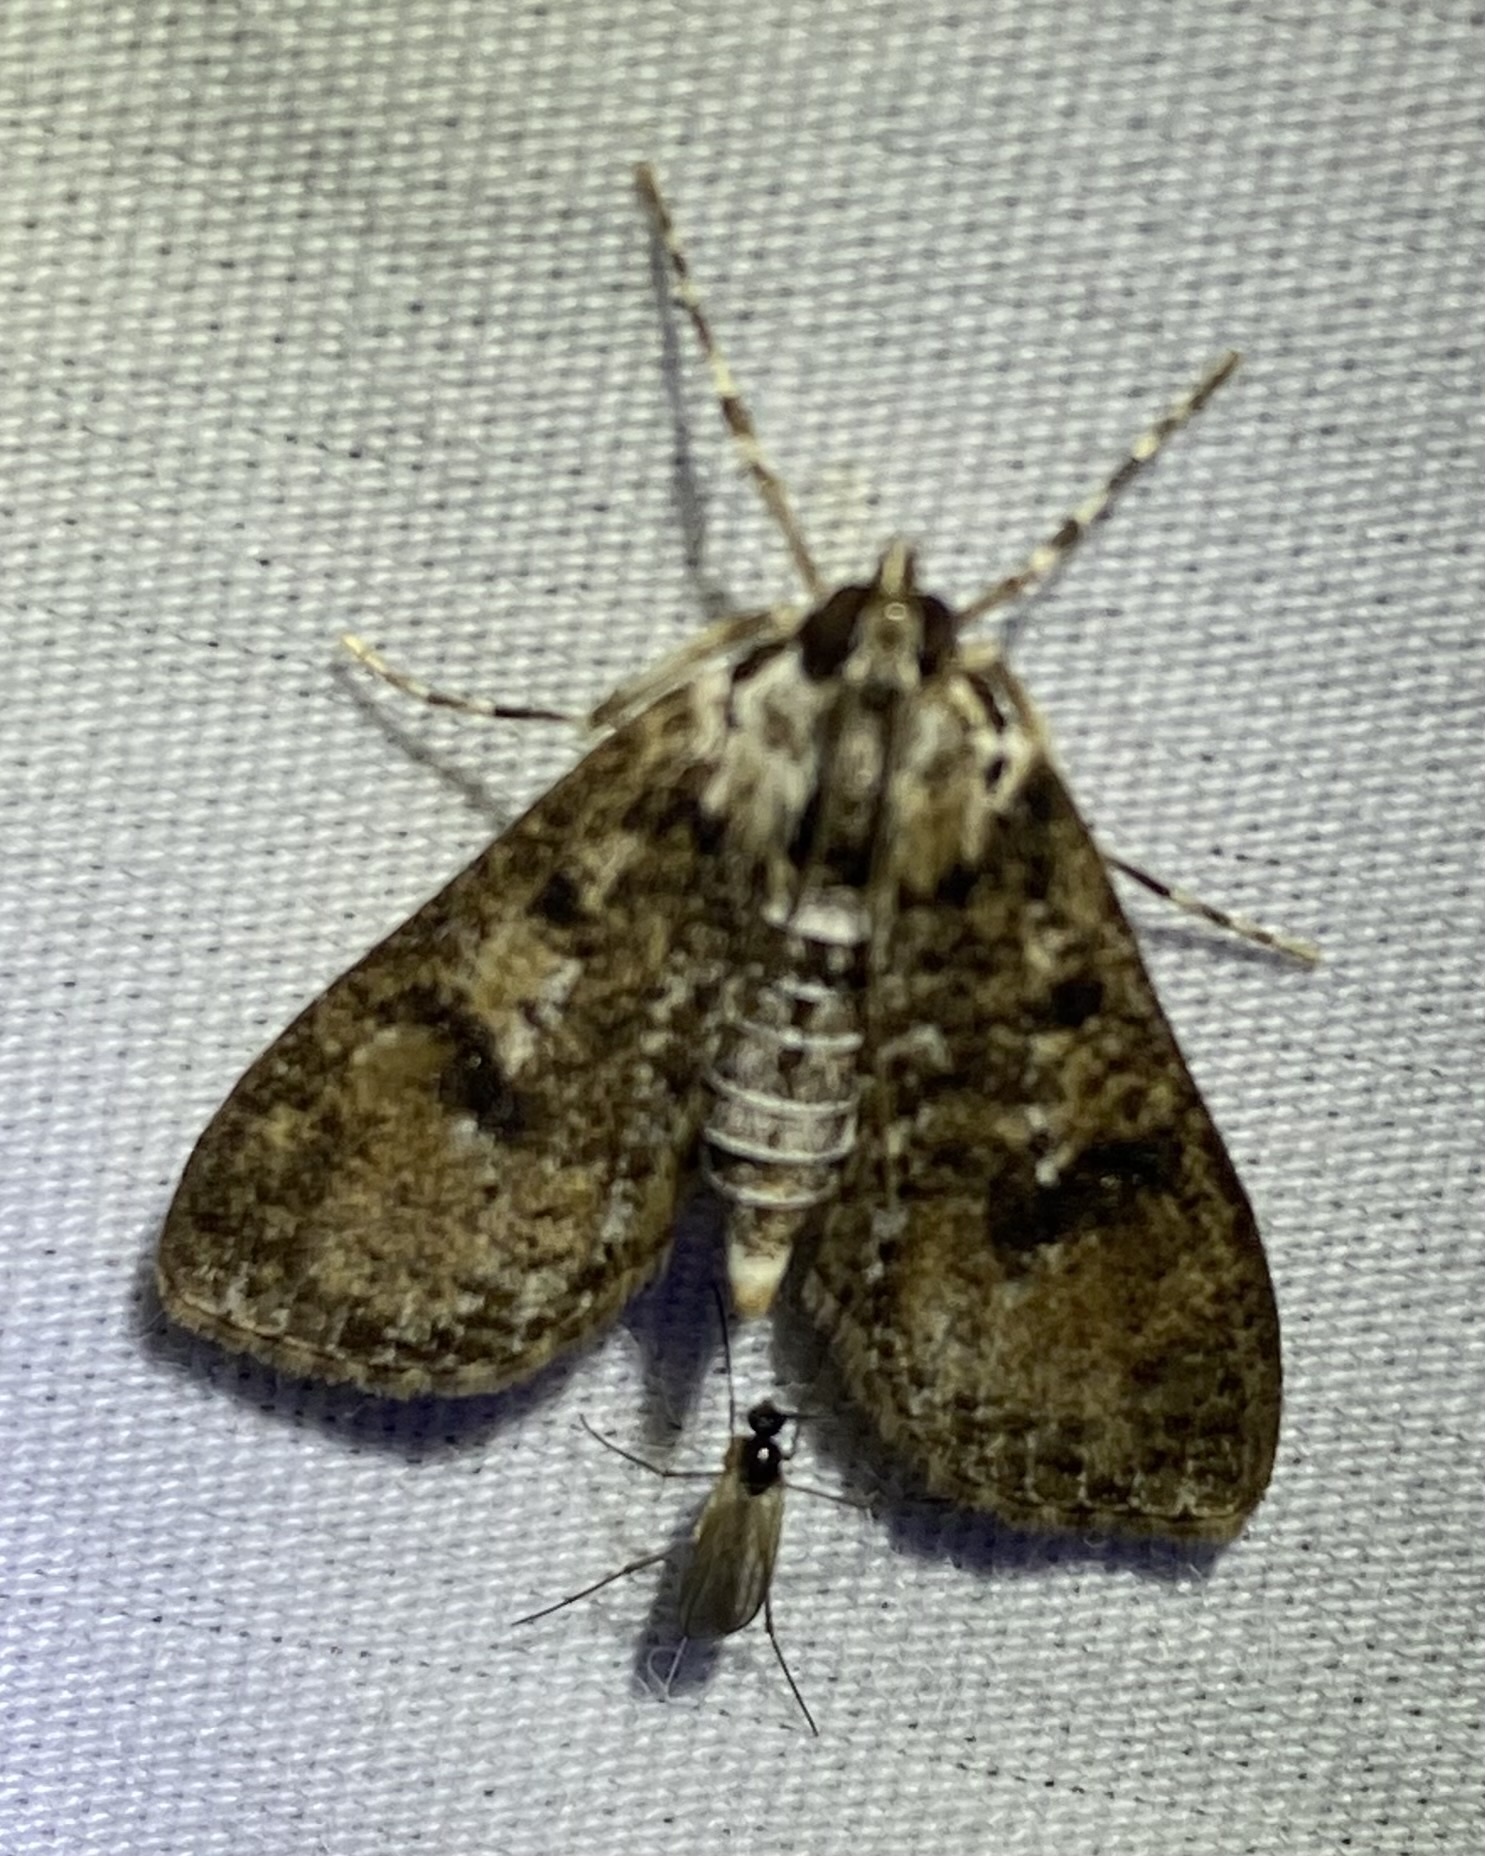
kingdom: Animalia
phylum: Arthropoda
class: Insecta
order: Lepidoptera
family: Crambidae
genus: Palpita
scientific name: Palpita magniferalis
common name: Splendid palpita moth
